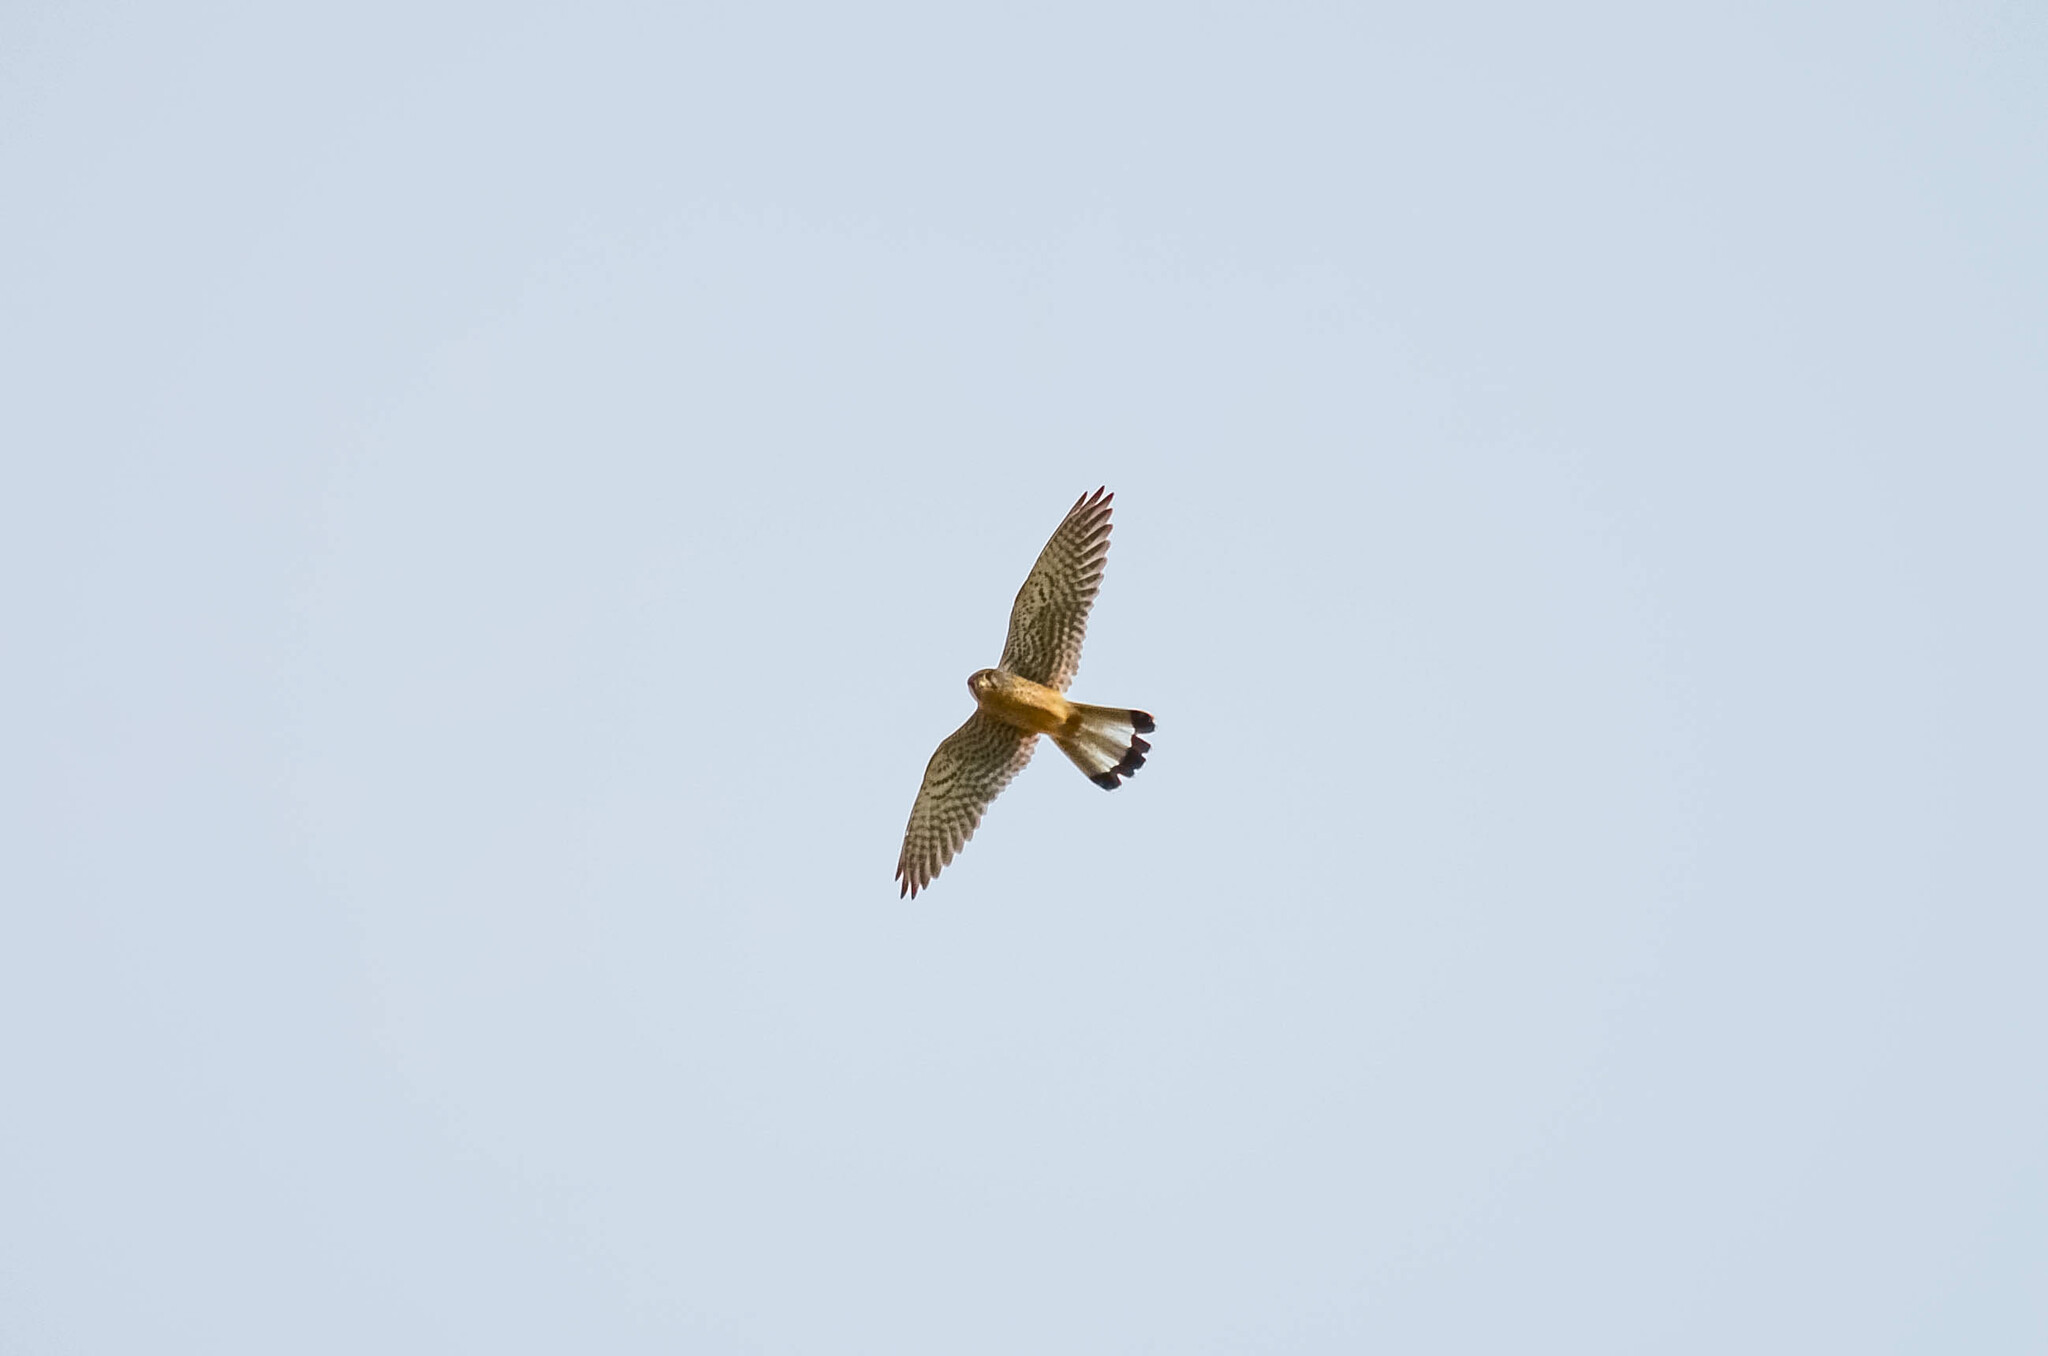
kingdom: Animalia
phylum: Chordata
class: Aves
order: Falconiformes
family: Falconidae
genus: Falco
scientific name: Falco tinnunculus
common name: Common kestrel
